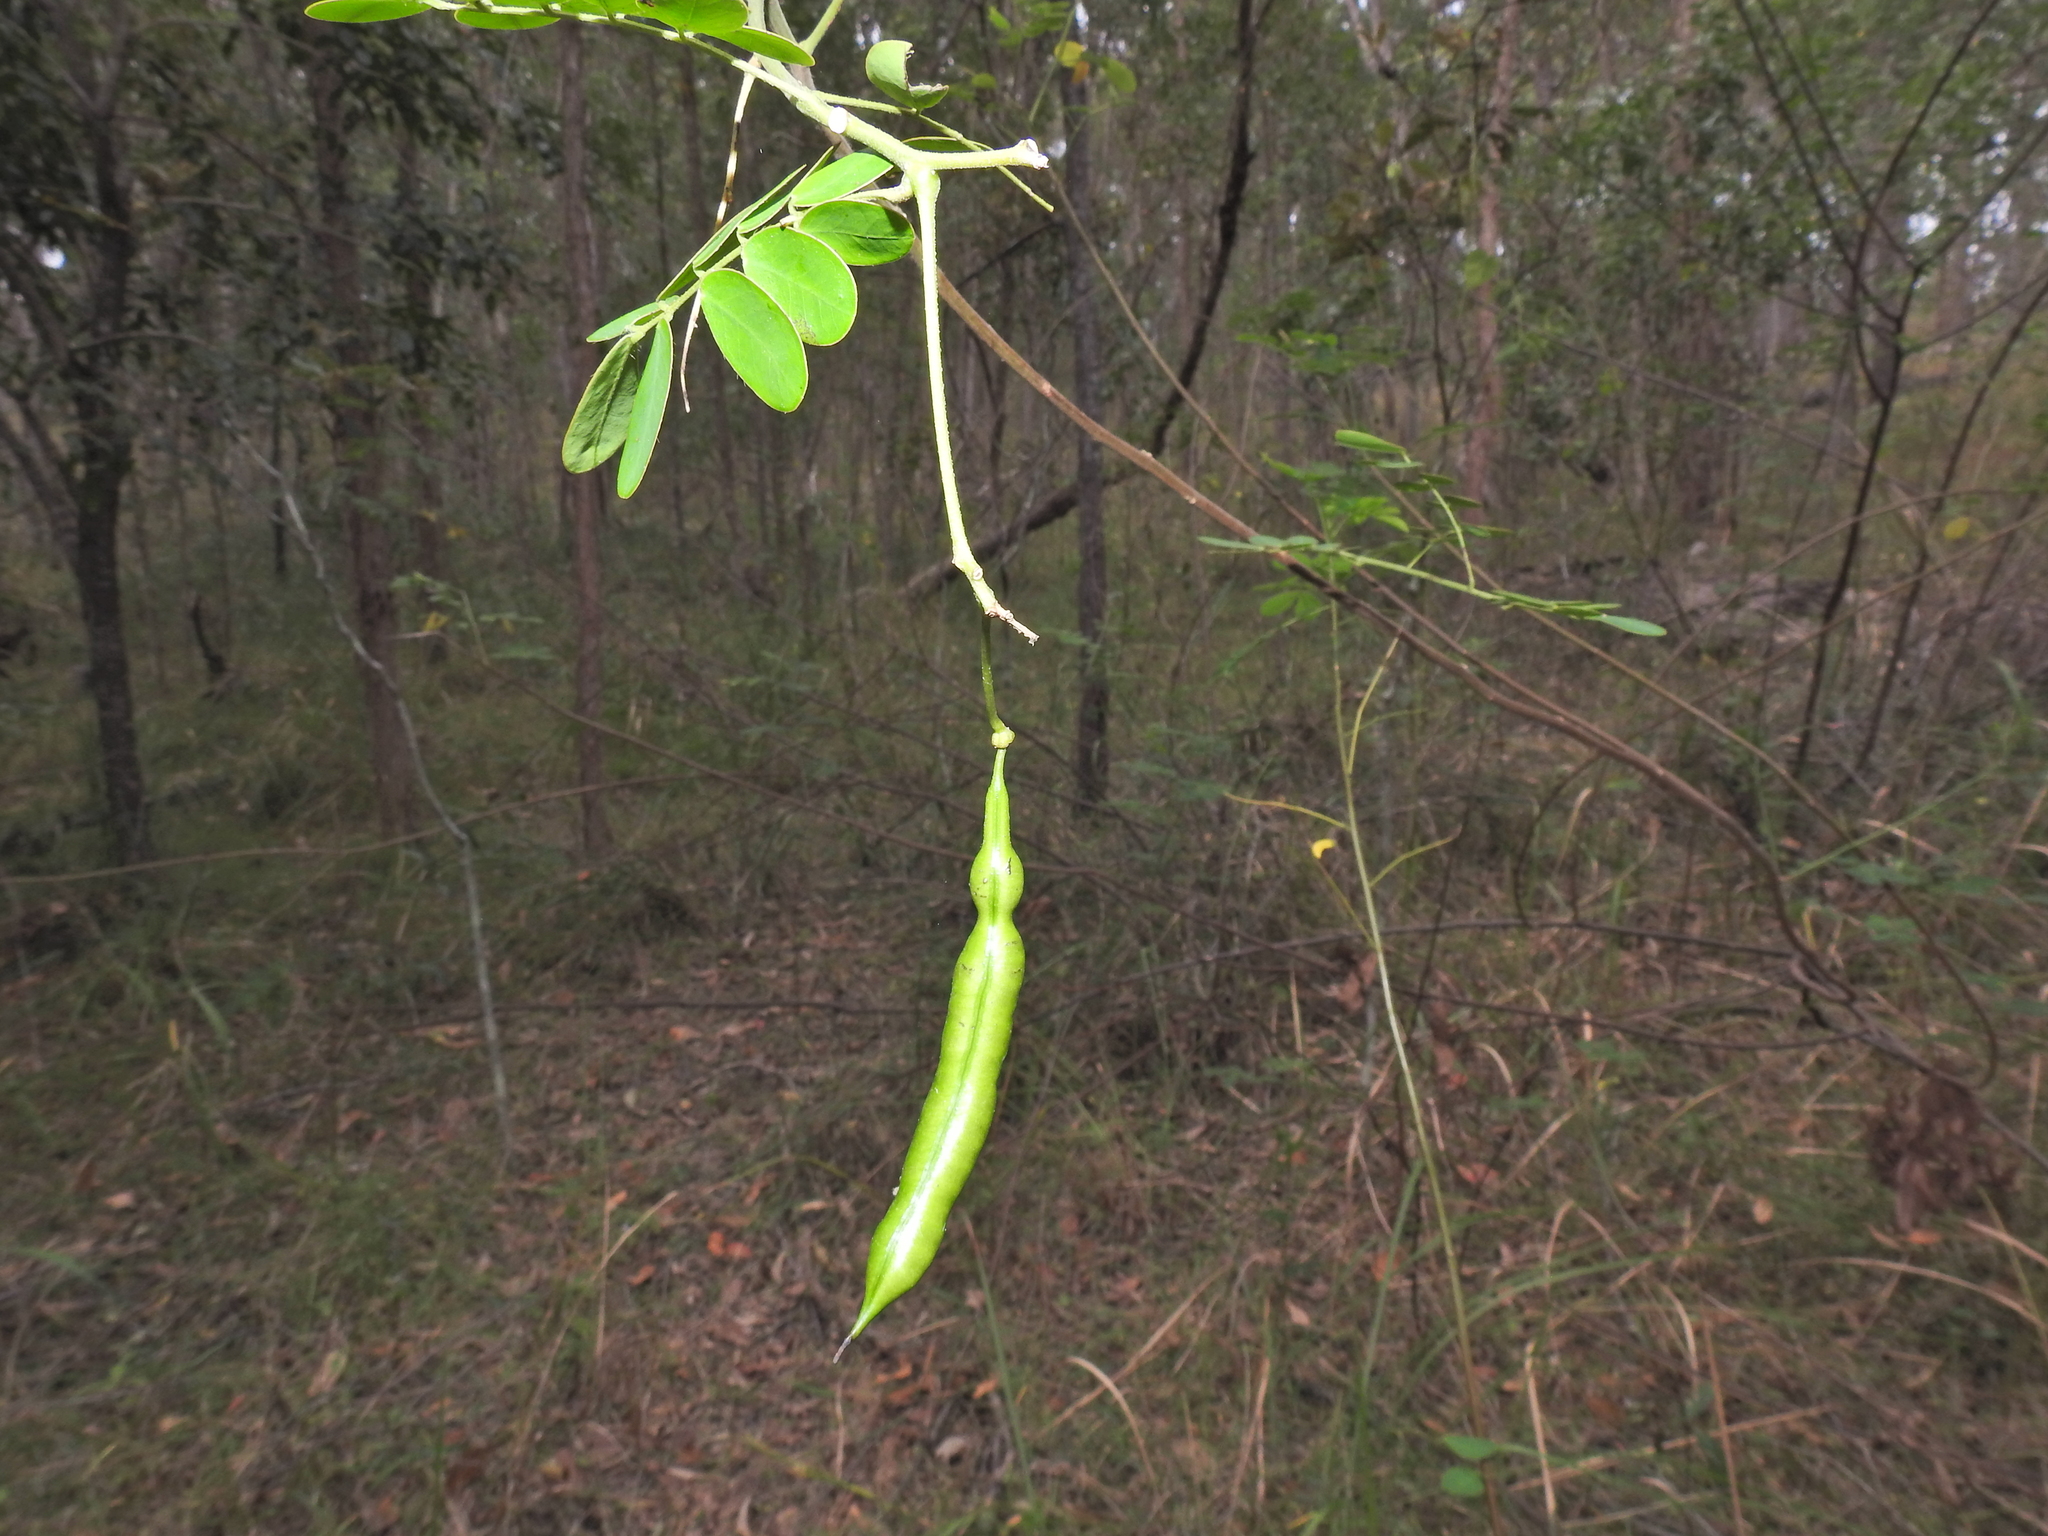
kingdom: Plantae
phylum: Tracheophyta
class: Magnoliopsida
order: Fabales
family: Fabaceae
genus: Senna
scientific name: Senna pendula
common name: Easter cassia
